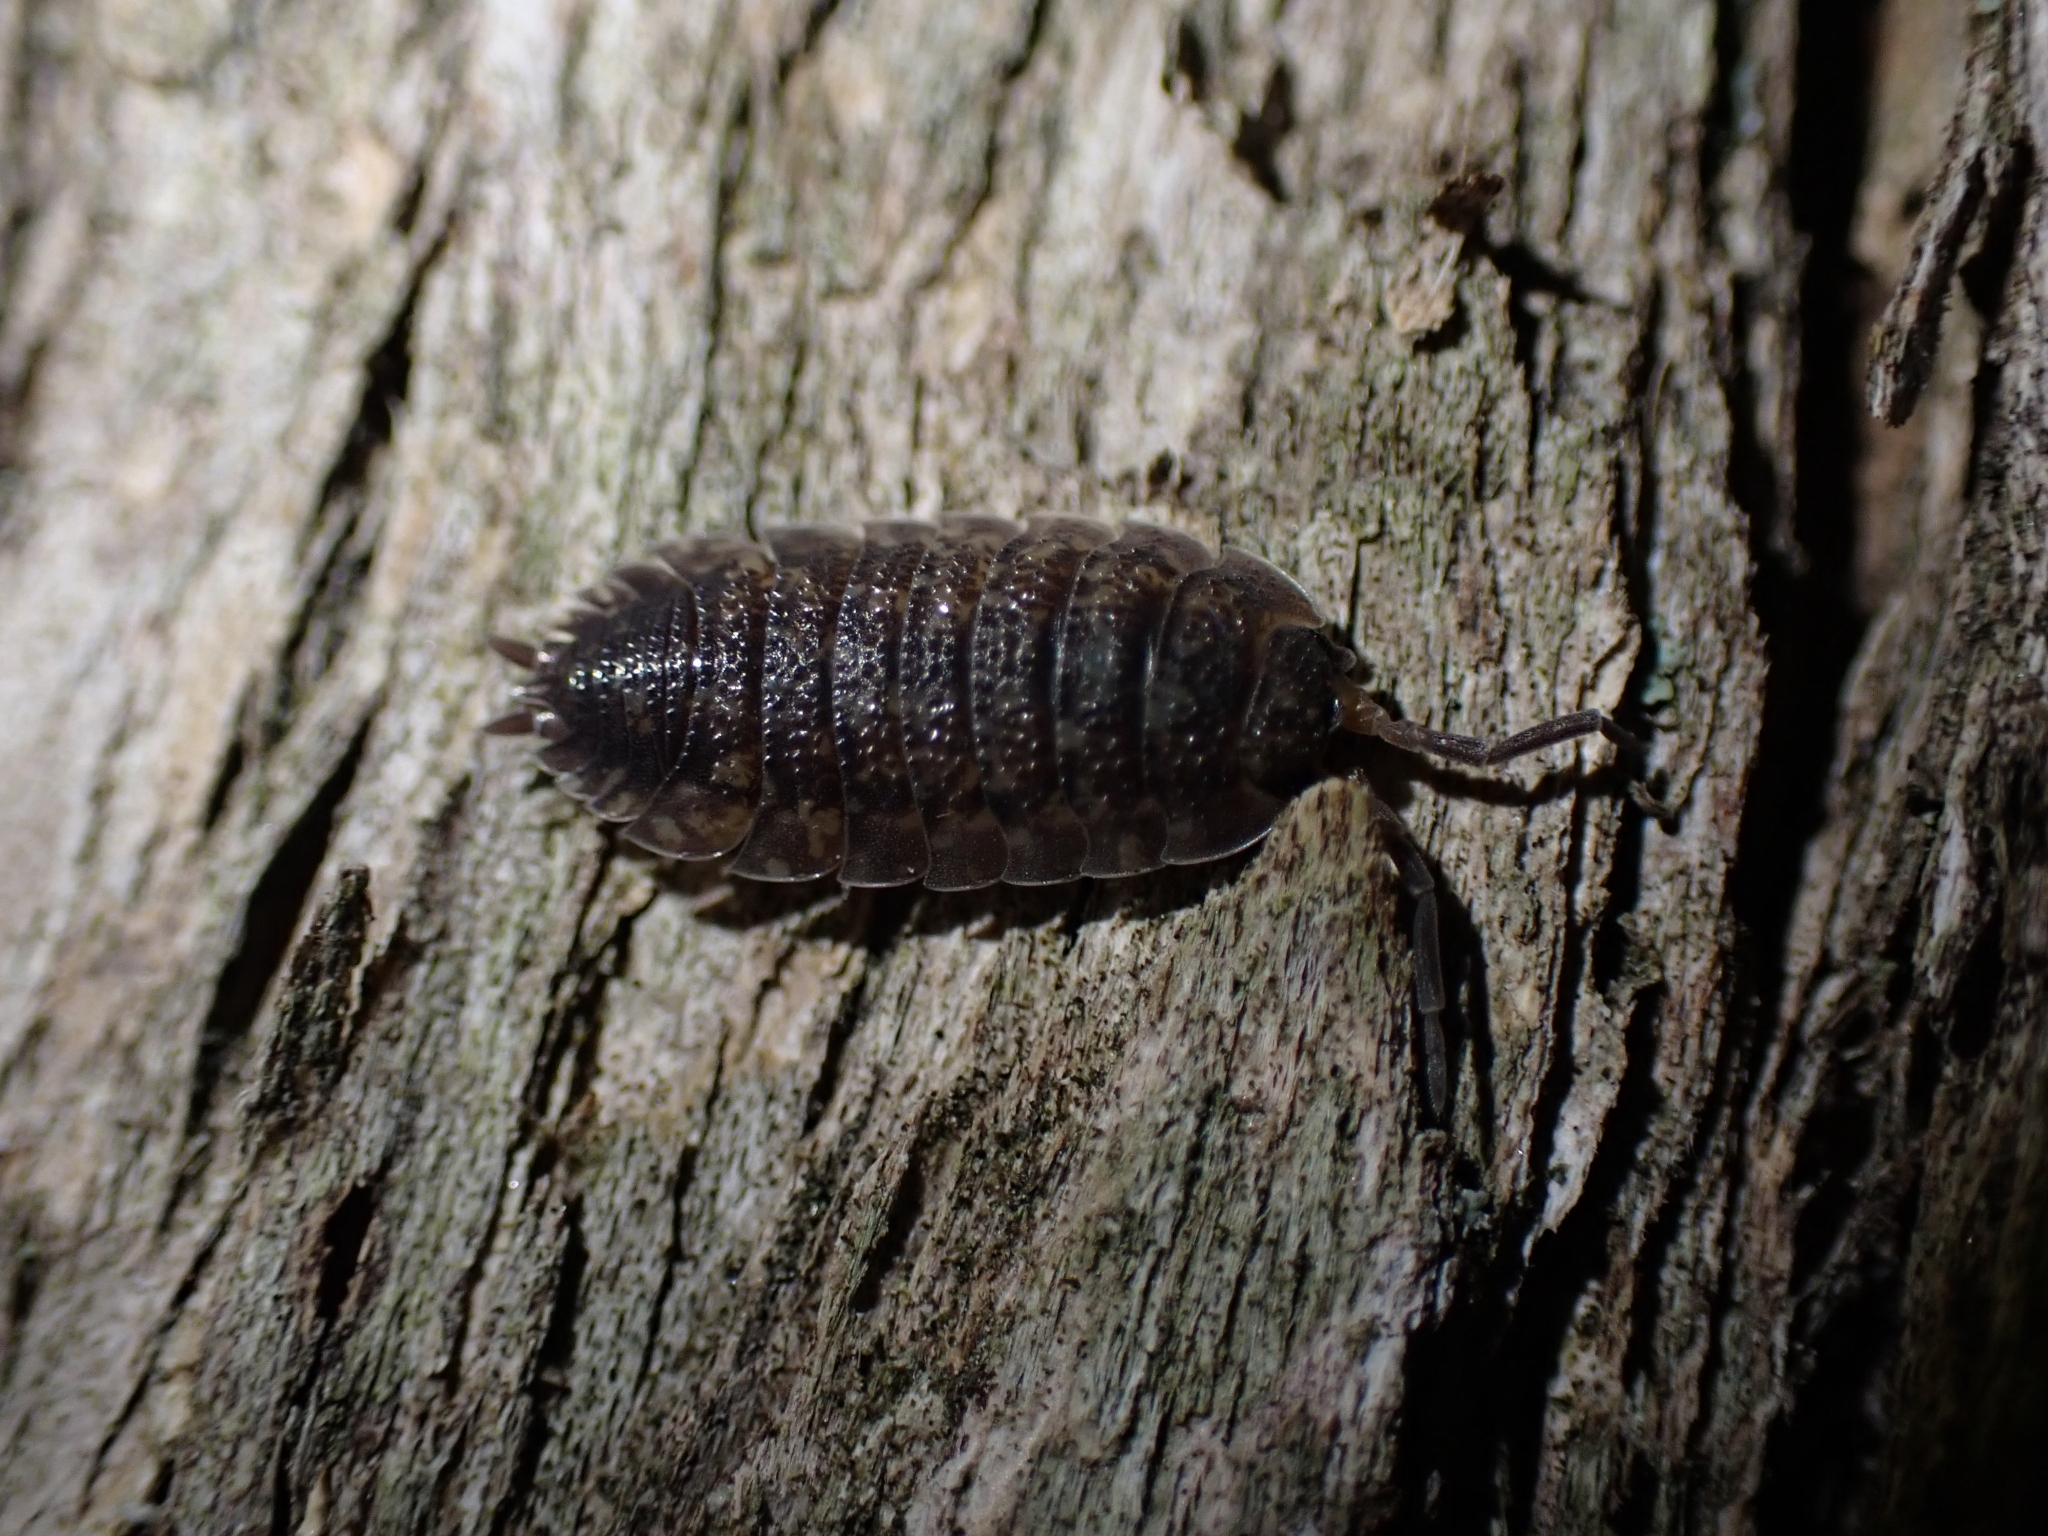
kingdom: Animalia
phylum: Arthropoda
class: Malacostraca
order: Isopoda
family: Porcellionidae
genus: Porcellio
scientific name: Porcellio scaber
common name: Common rough woodlouse
